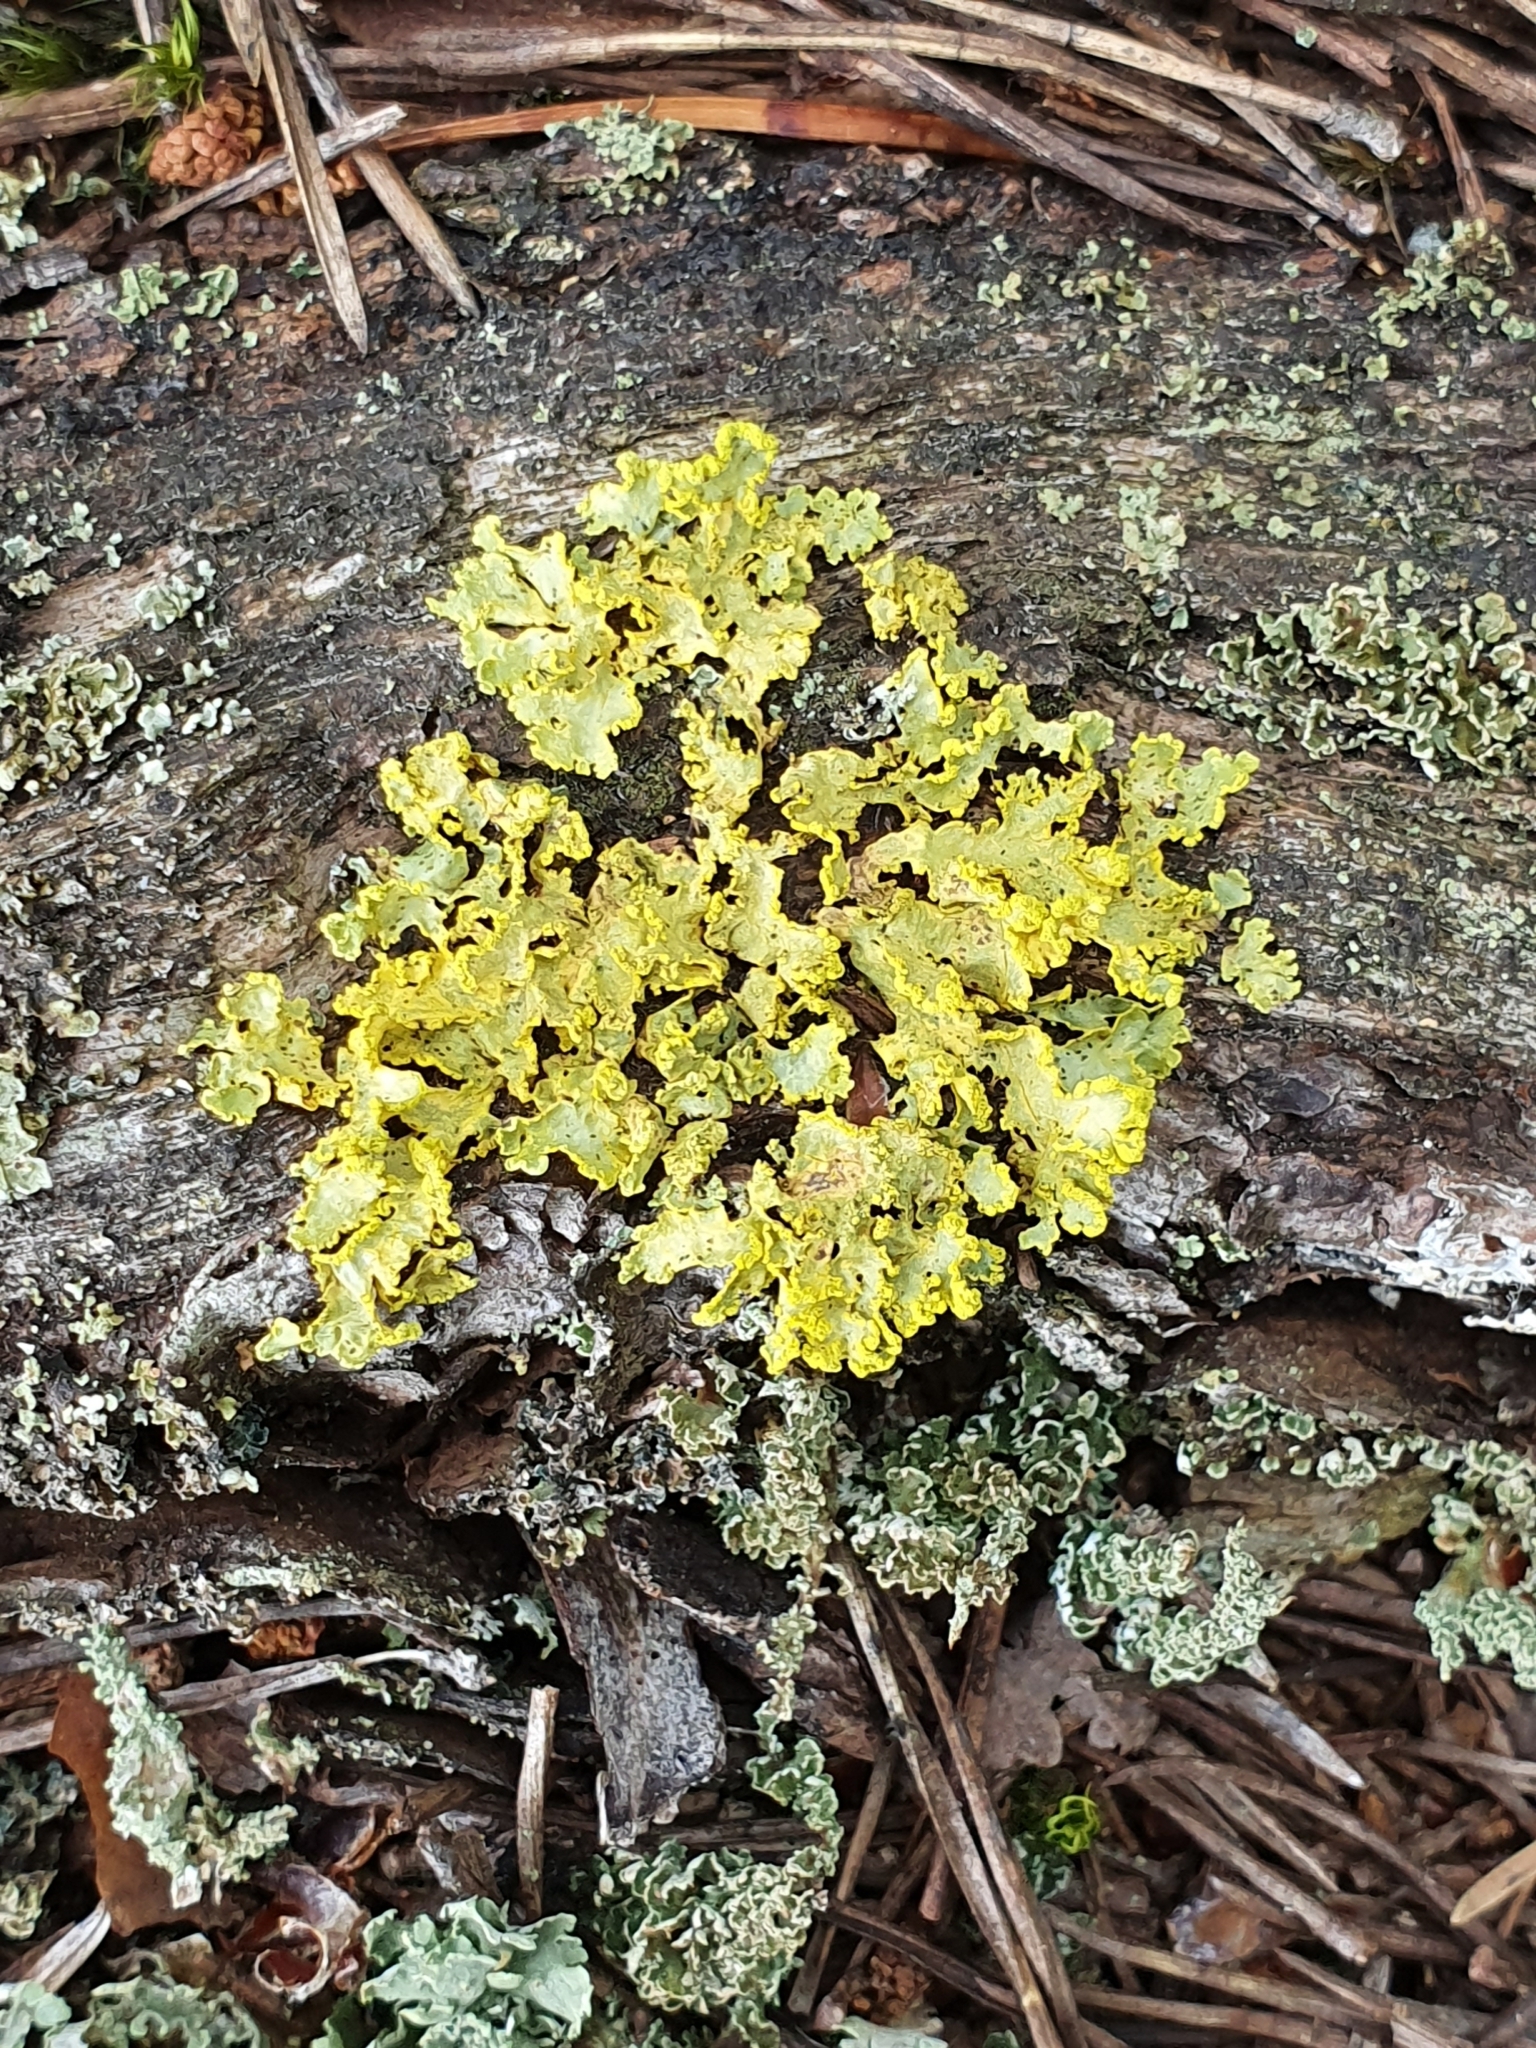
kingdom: Fungi
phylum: Ascomycota
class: Lecanoromycetes
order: Lecanorales
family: Parmeliaceae
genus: Vulpicida
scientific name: Vulpicida pinastri
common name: Powdered sunshine lichen
